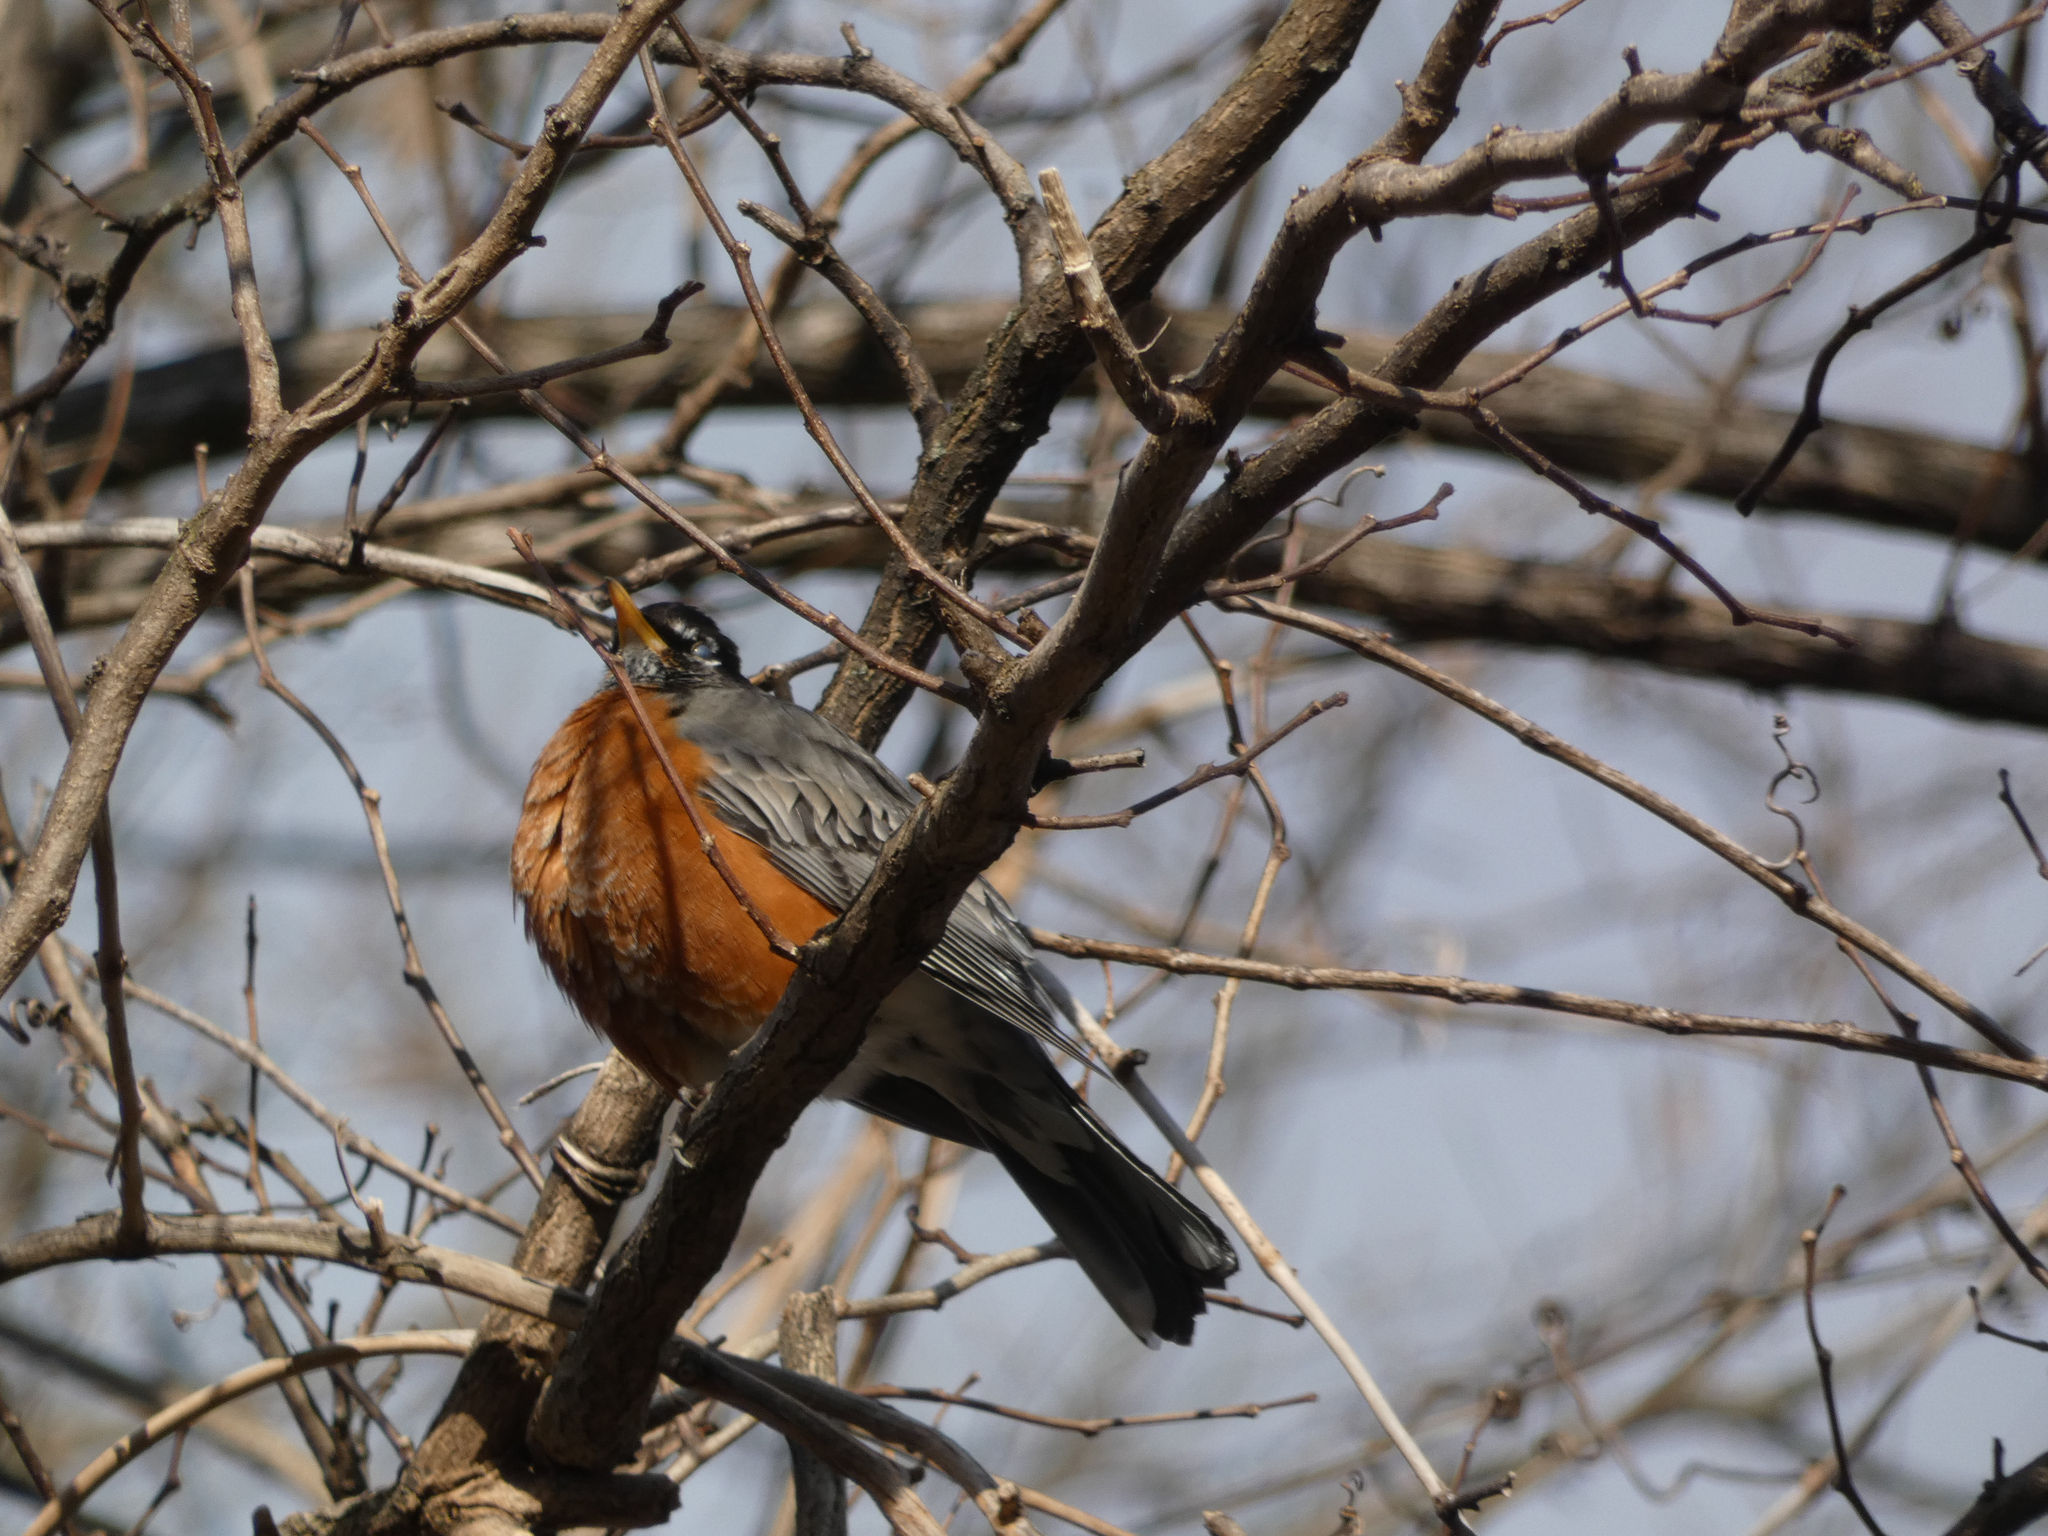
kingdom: Animalia
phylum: Chordata
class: Aves
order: Passeriformes
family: Turdidae
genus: Turdus
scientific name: Turdus migratorius
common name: American robin
